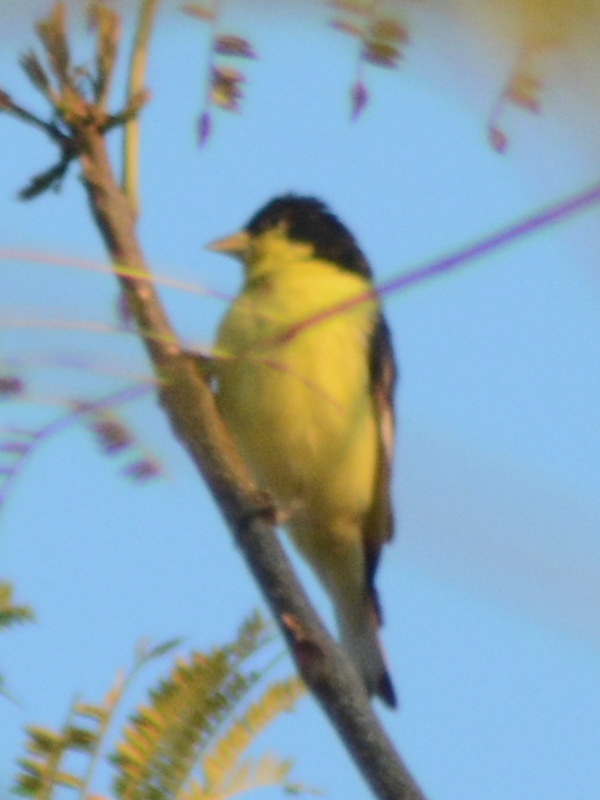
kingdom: Animalia
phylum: Chordata
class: Aves
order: Passeriformes
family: Fringillidae
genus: Spinus
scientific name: Spinus psaltria
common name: Lesser goldfinch
